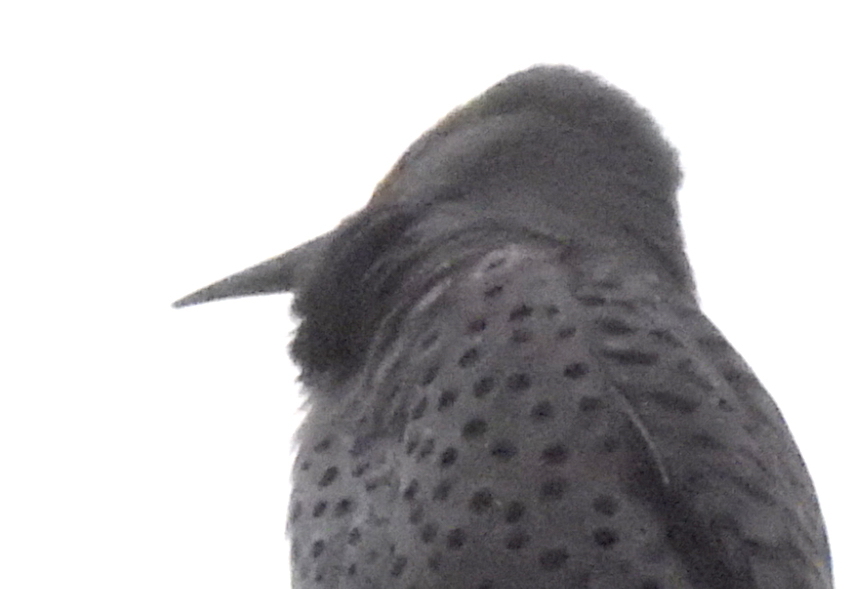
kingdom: Animalia
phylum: Chordata
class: Aves
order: Piciformes
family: Picidae
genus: Colaptes
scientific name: Colaptes auratus
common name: Northern flicker
